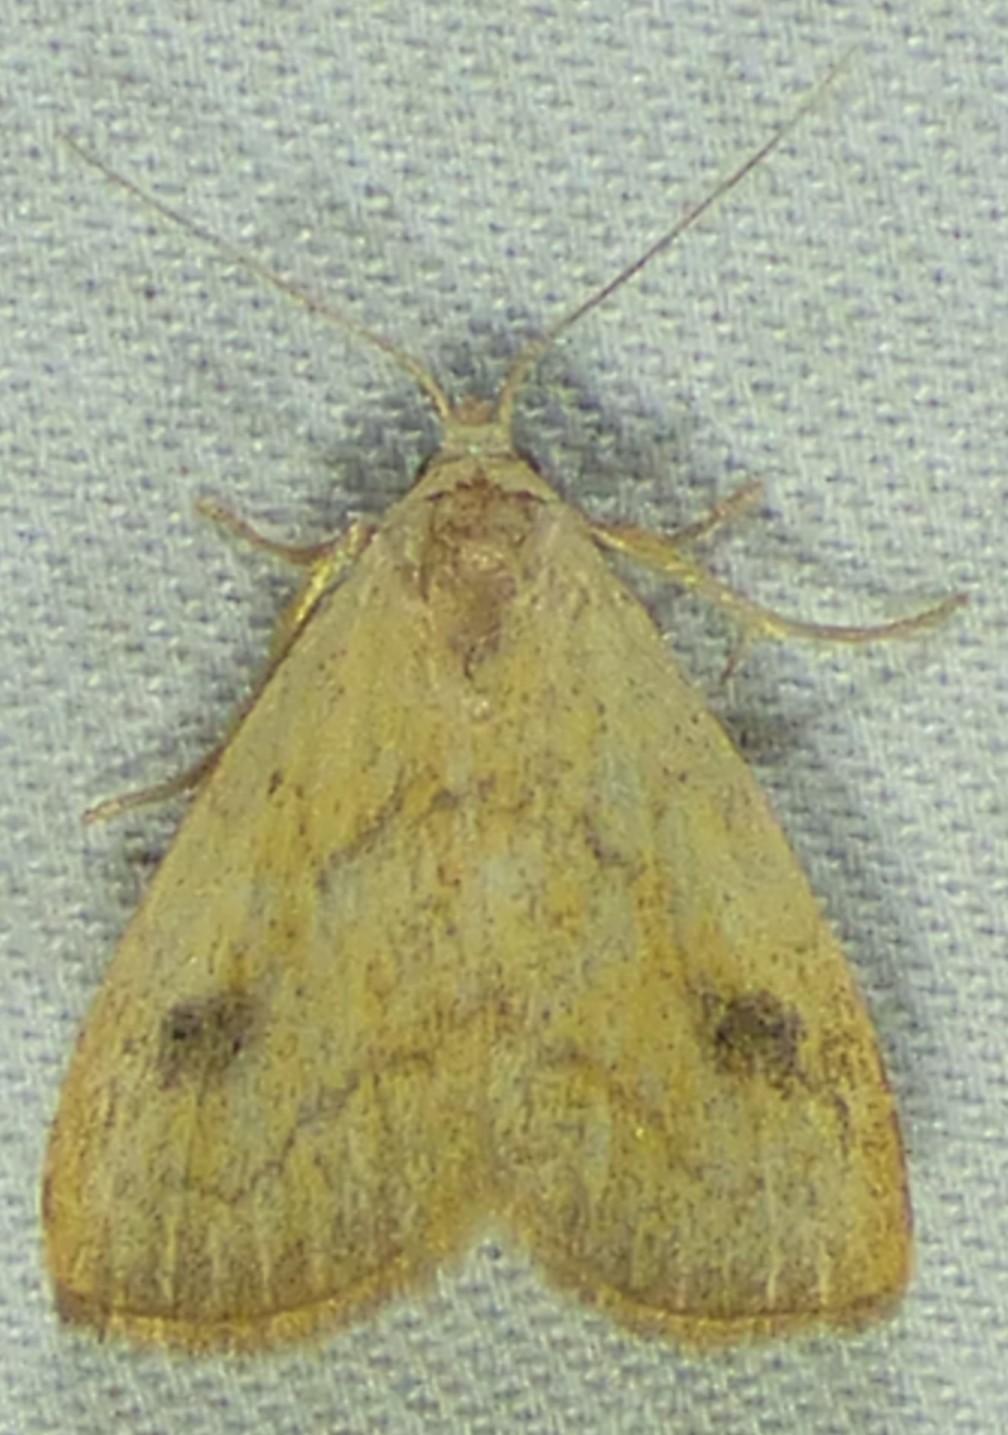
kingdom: Animalia
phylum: Arthropoda
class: Insecta
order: Lepidoptera
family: Erebidae
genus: Rivula
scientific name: Rivula propinqualis
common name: Spotted grass moth
